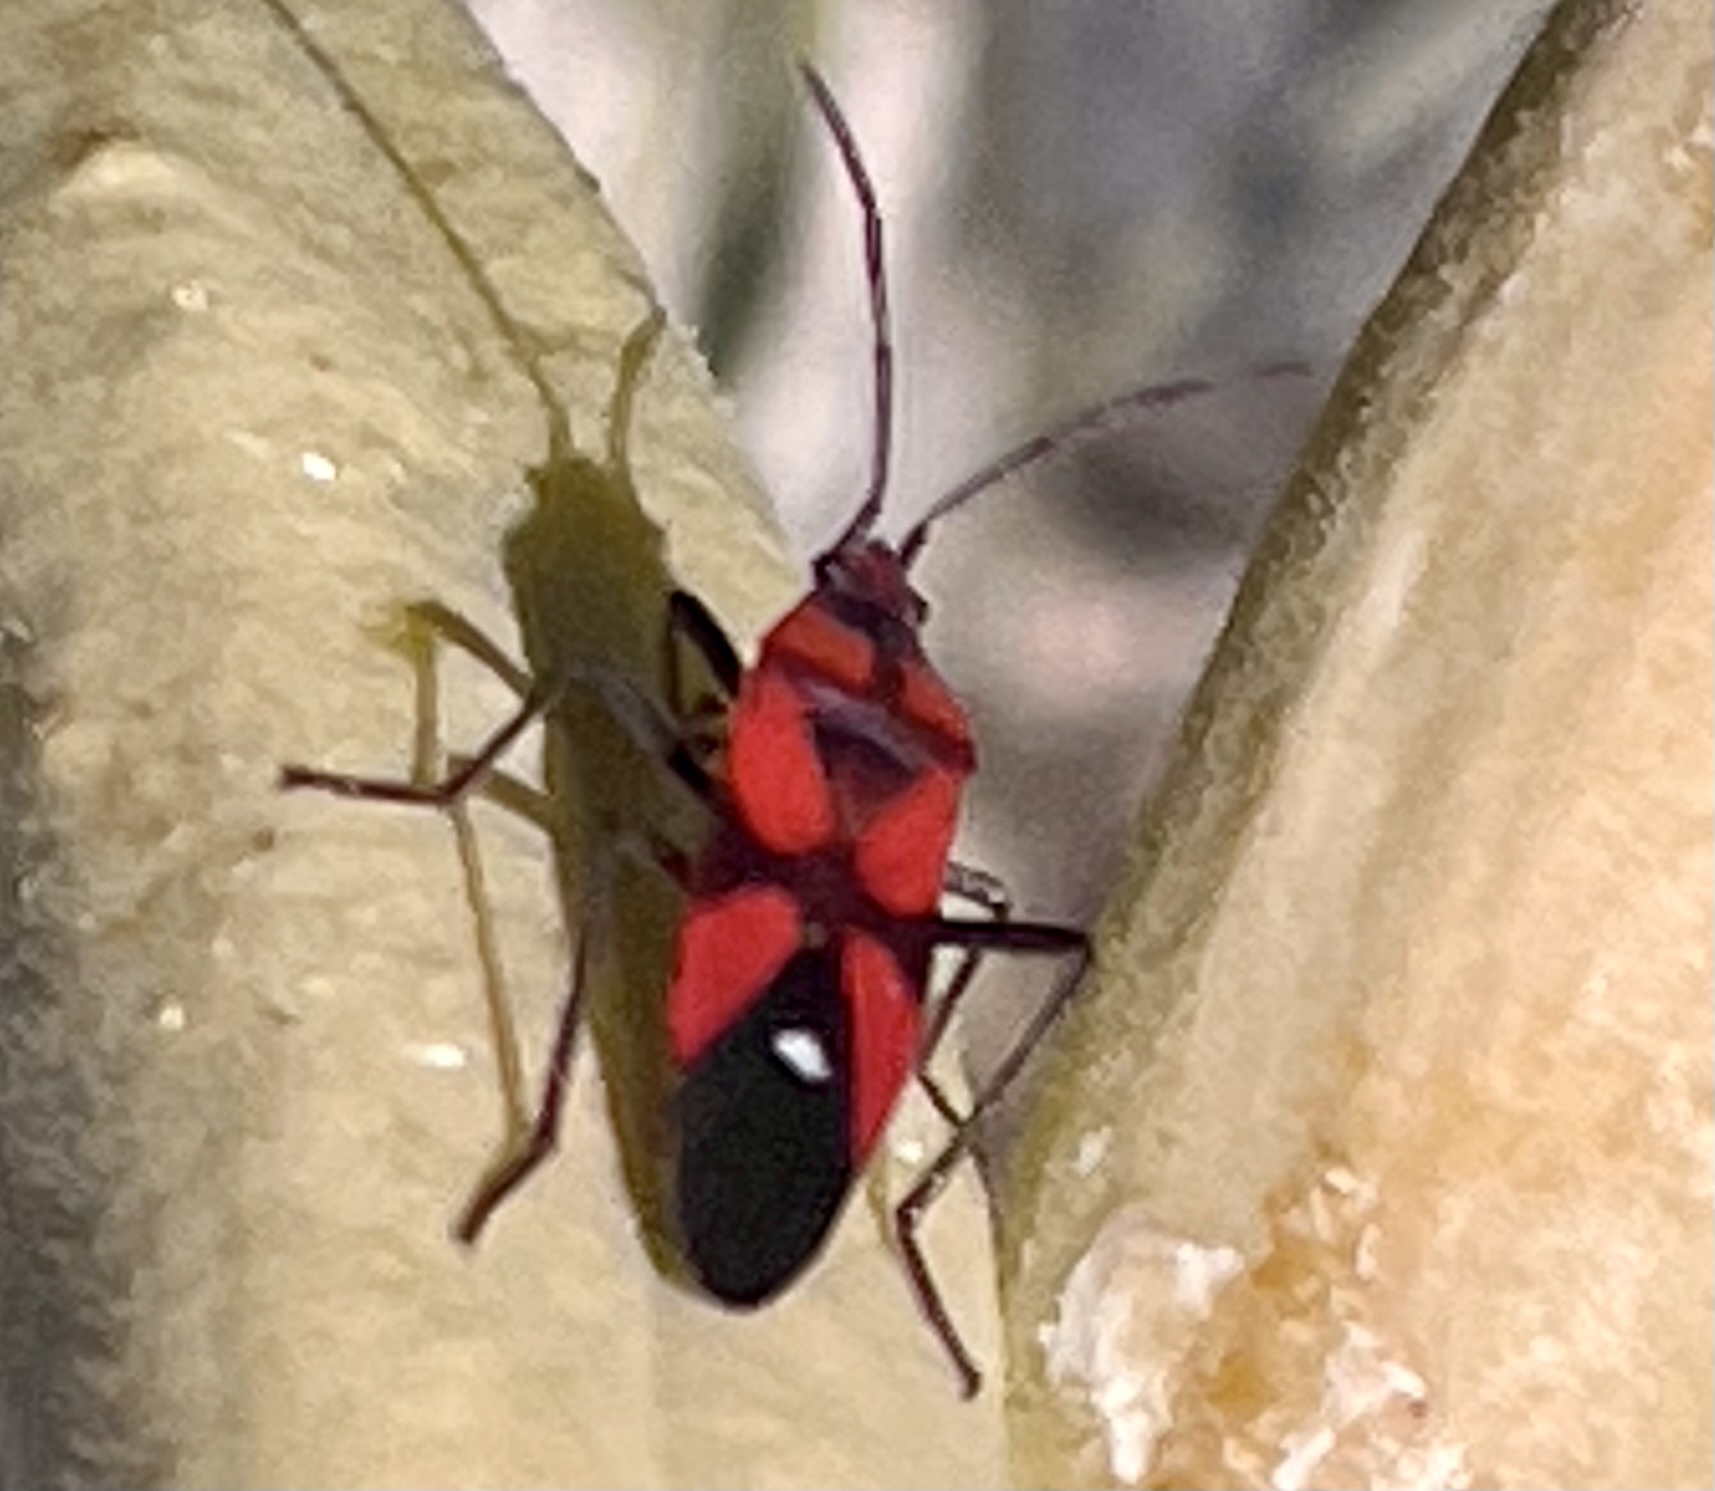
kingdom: Animalia
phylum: Arthropoda
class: Insecta
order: Hemiptera
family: Lygaeidae
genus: Oncopeltus
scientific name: Oncopeltus sanguinolentus
